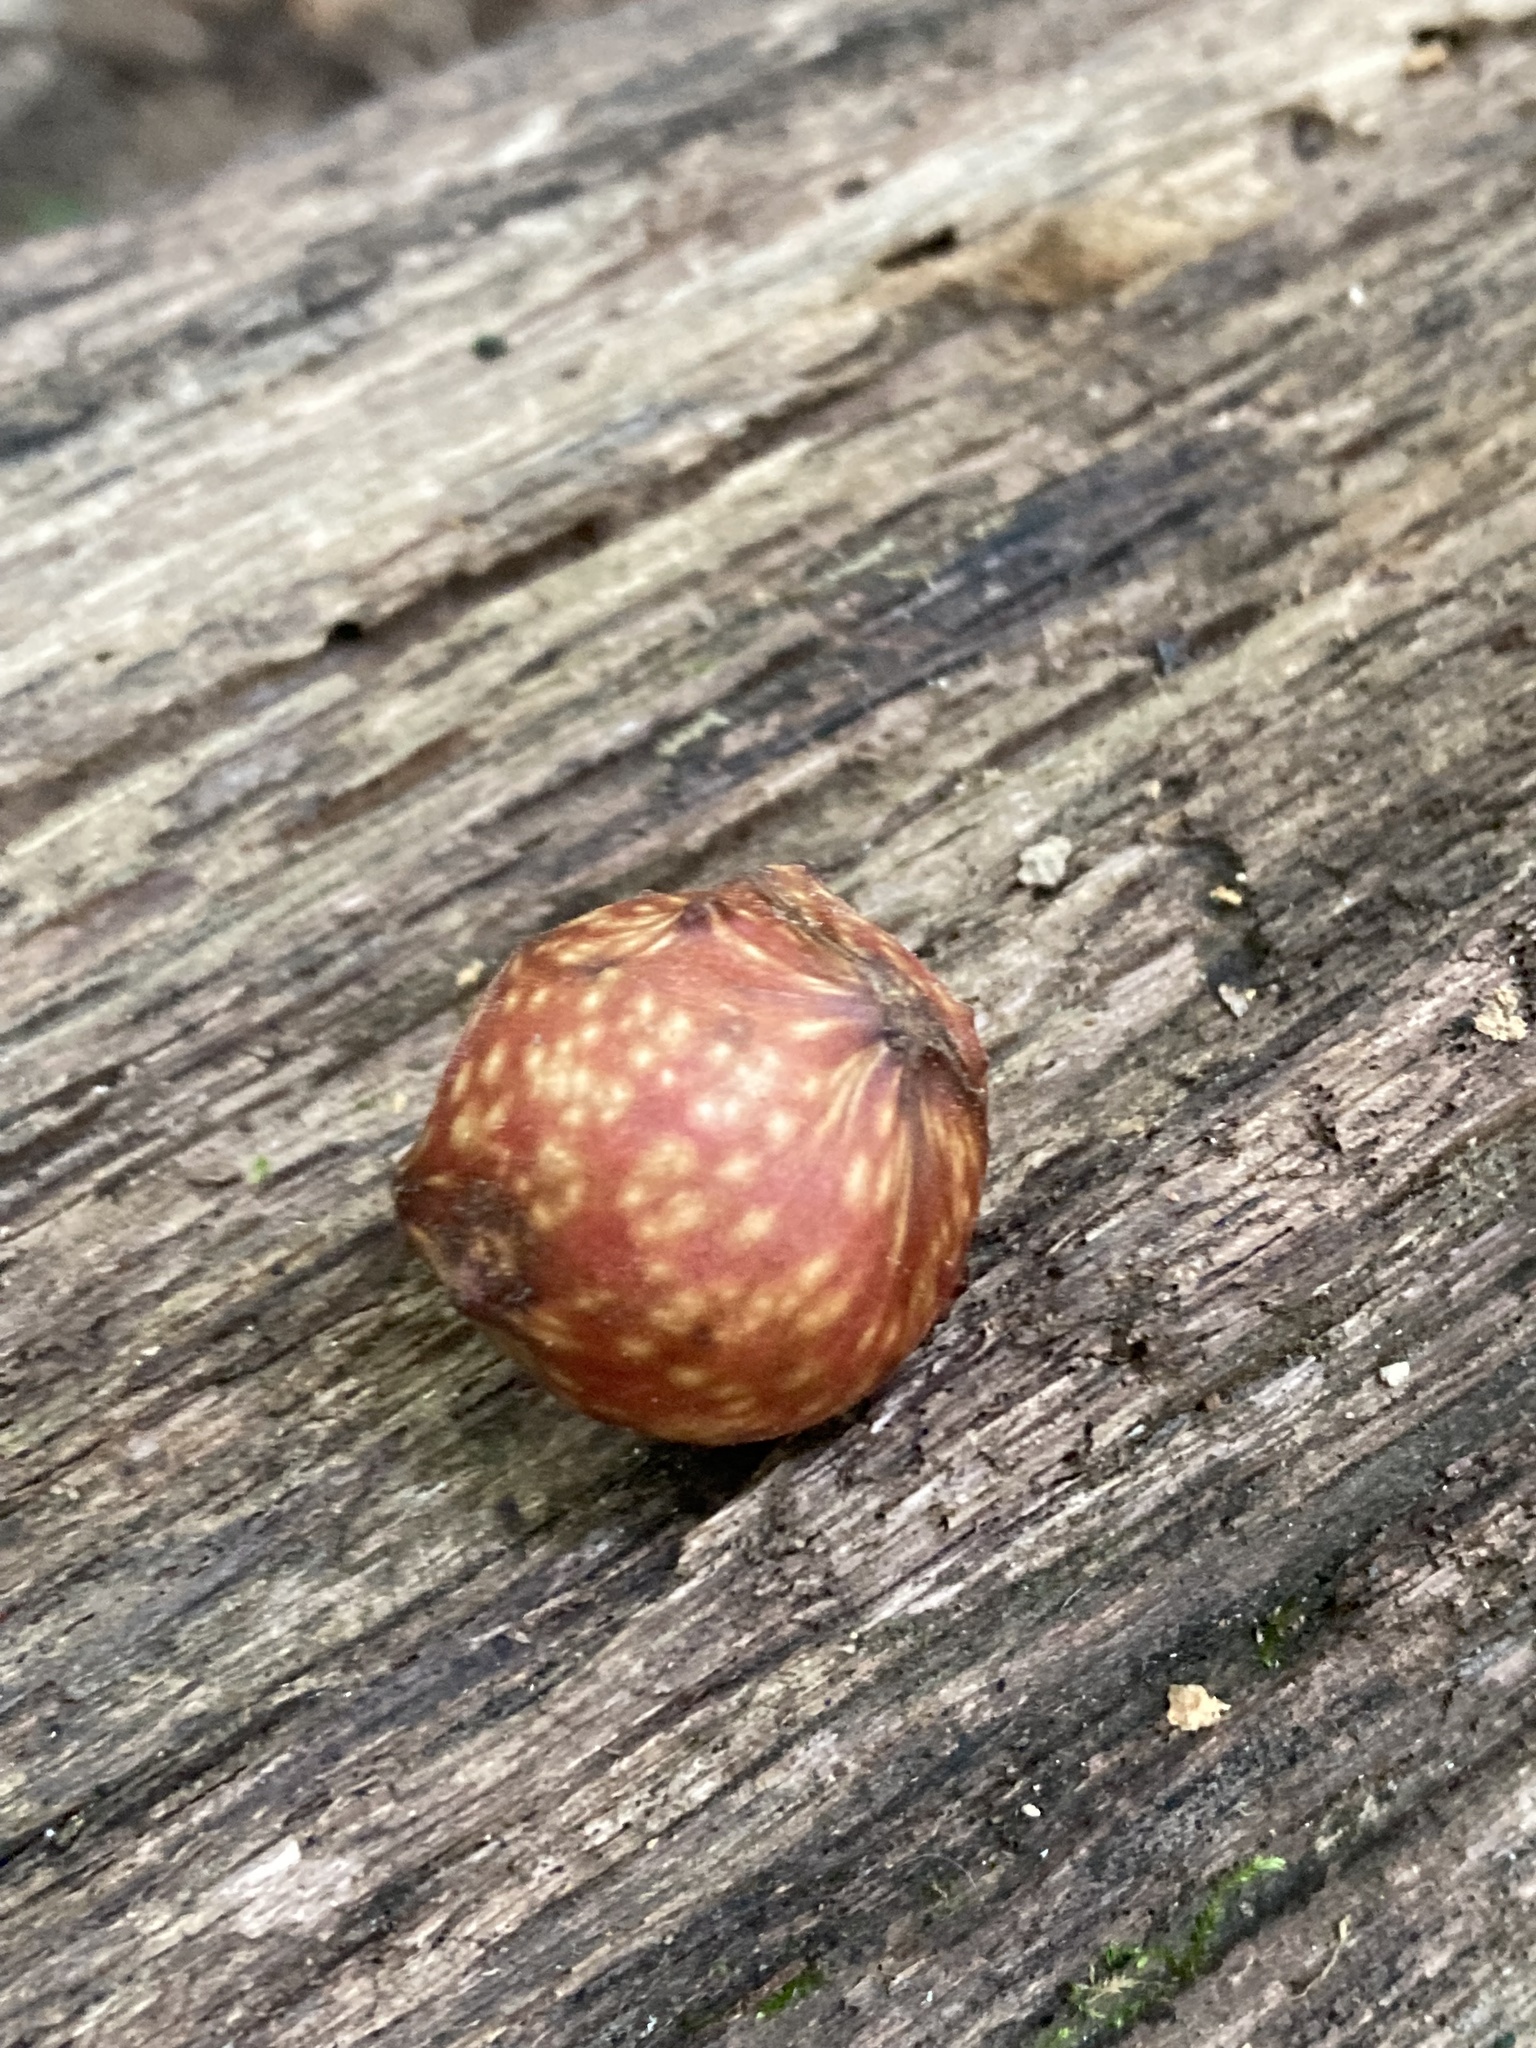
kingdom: Animalia
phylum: Arthropoda
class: Insecta
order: Hymenoptera
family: Cynipidae
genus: Amphibolips
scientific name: Amphibolips
